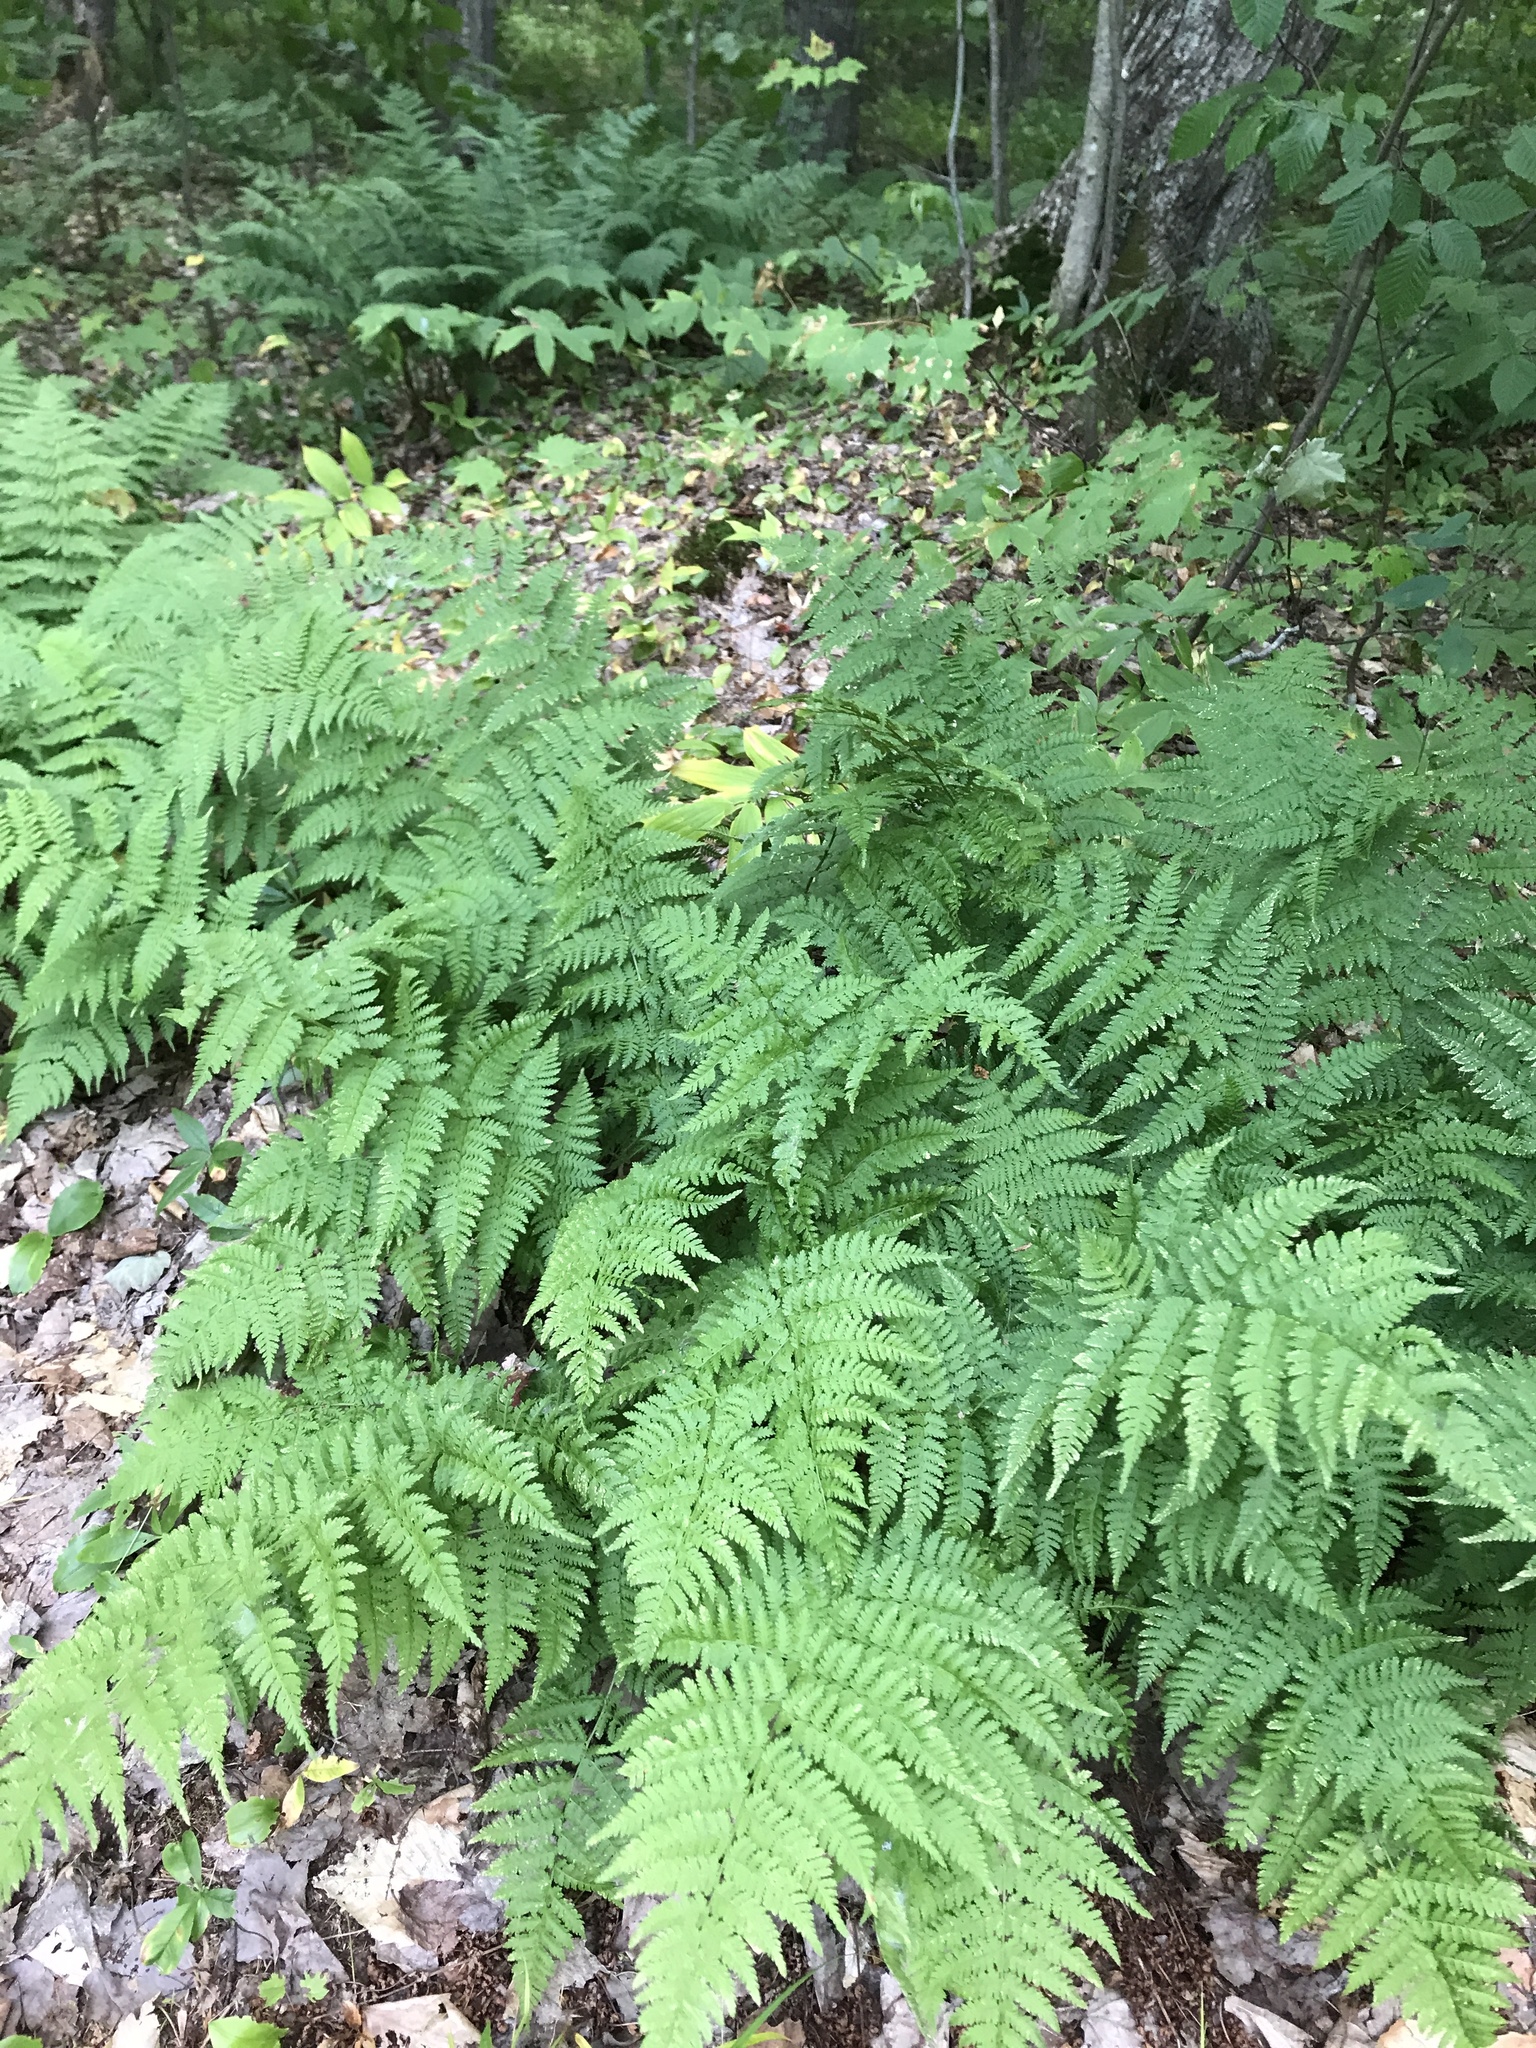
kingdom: Plantae
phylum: Tracheophyta
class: Polypodiopsida
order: Polypodiales
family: Athyriaceae
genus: Athyrium
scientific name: Athyrium angustum
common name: Northern lady fern
